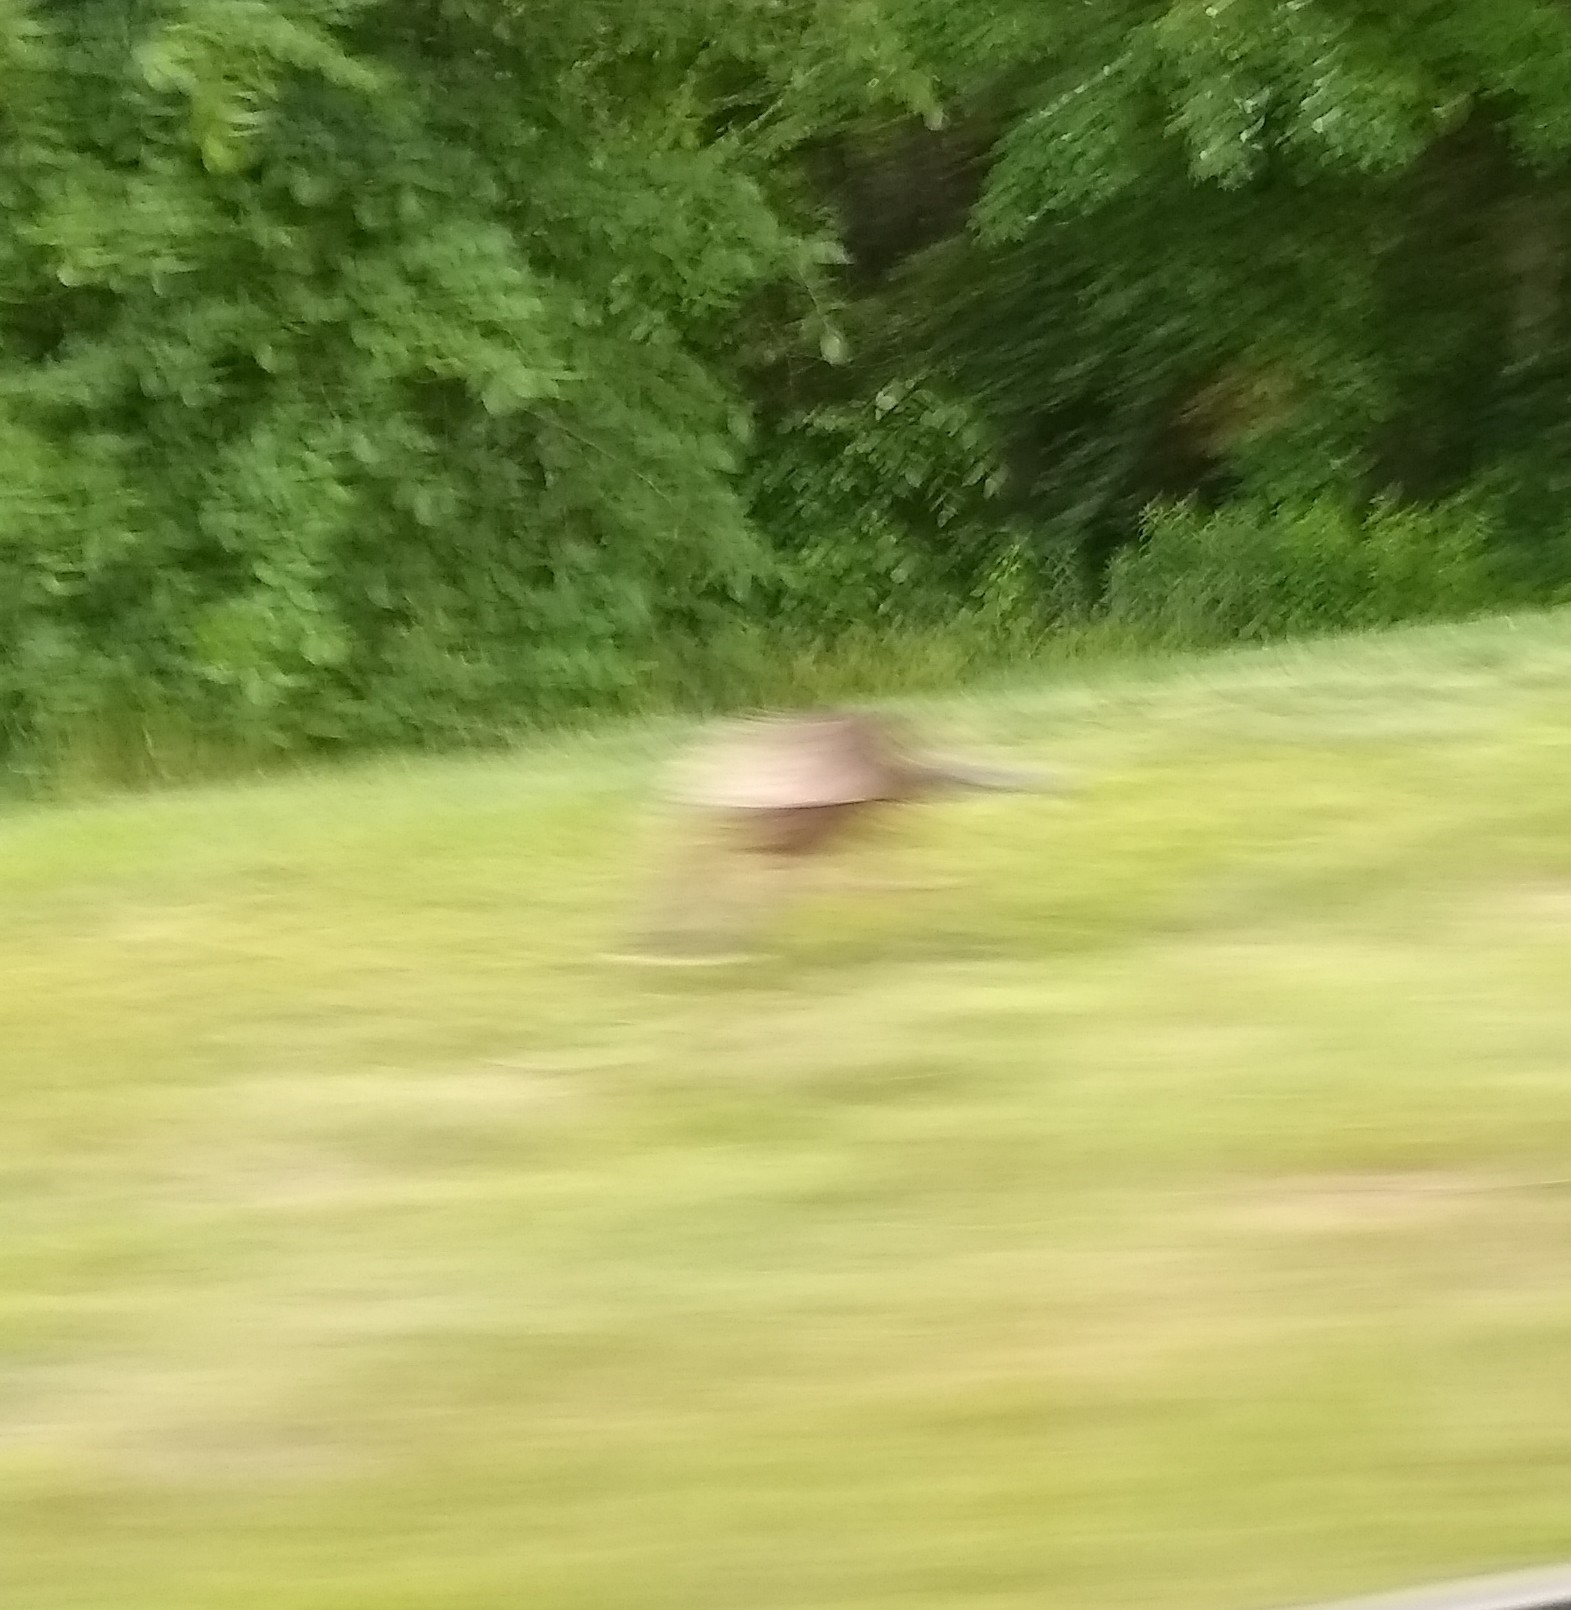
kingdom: Animalia
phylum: Chordata
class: Aves
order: Galliformes
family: Phasianidae
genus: Meleagris
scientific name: Meleagris gallopavo
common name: Wild turkey
